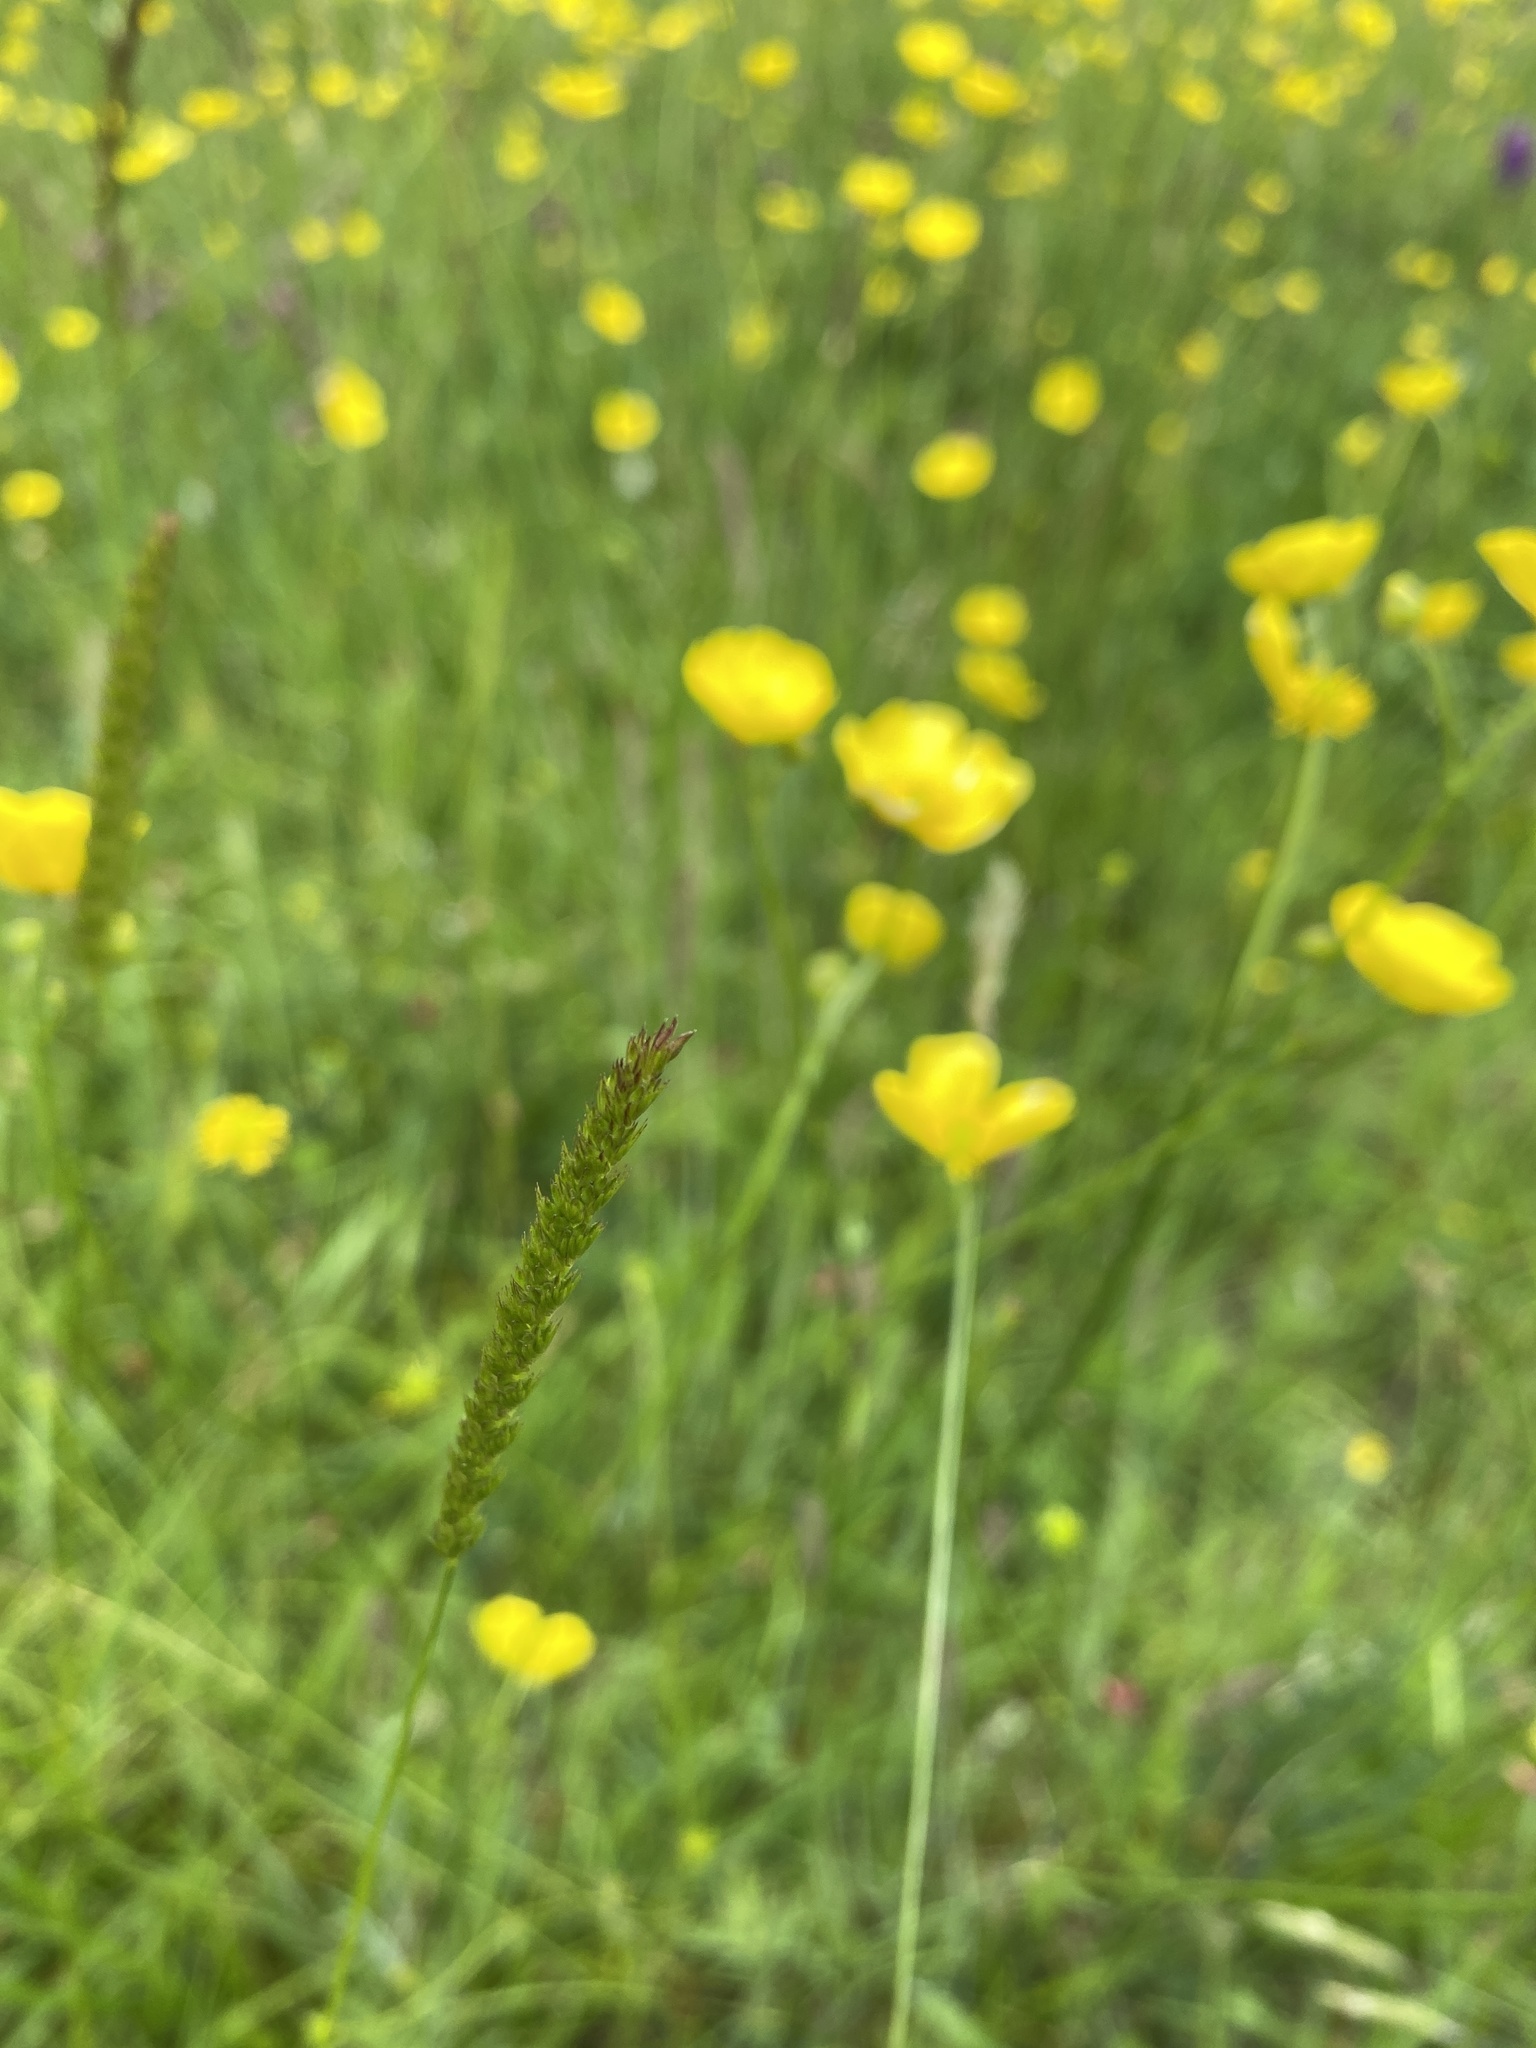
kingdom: Plantae
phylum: Tracheophyta
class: Liliopsida
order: Poales
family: Poaceae
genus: Cynosurus
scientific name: Cynosurus cristatus
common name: Crested dog's-tail
